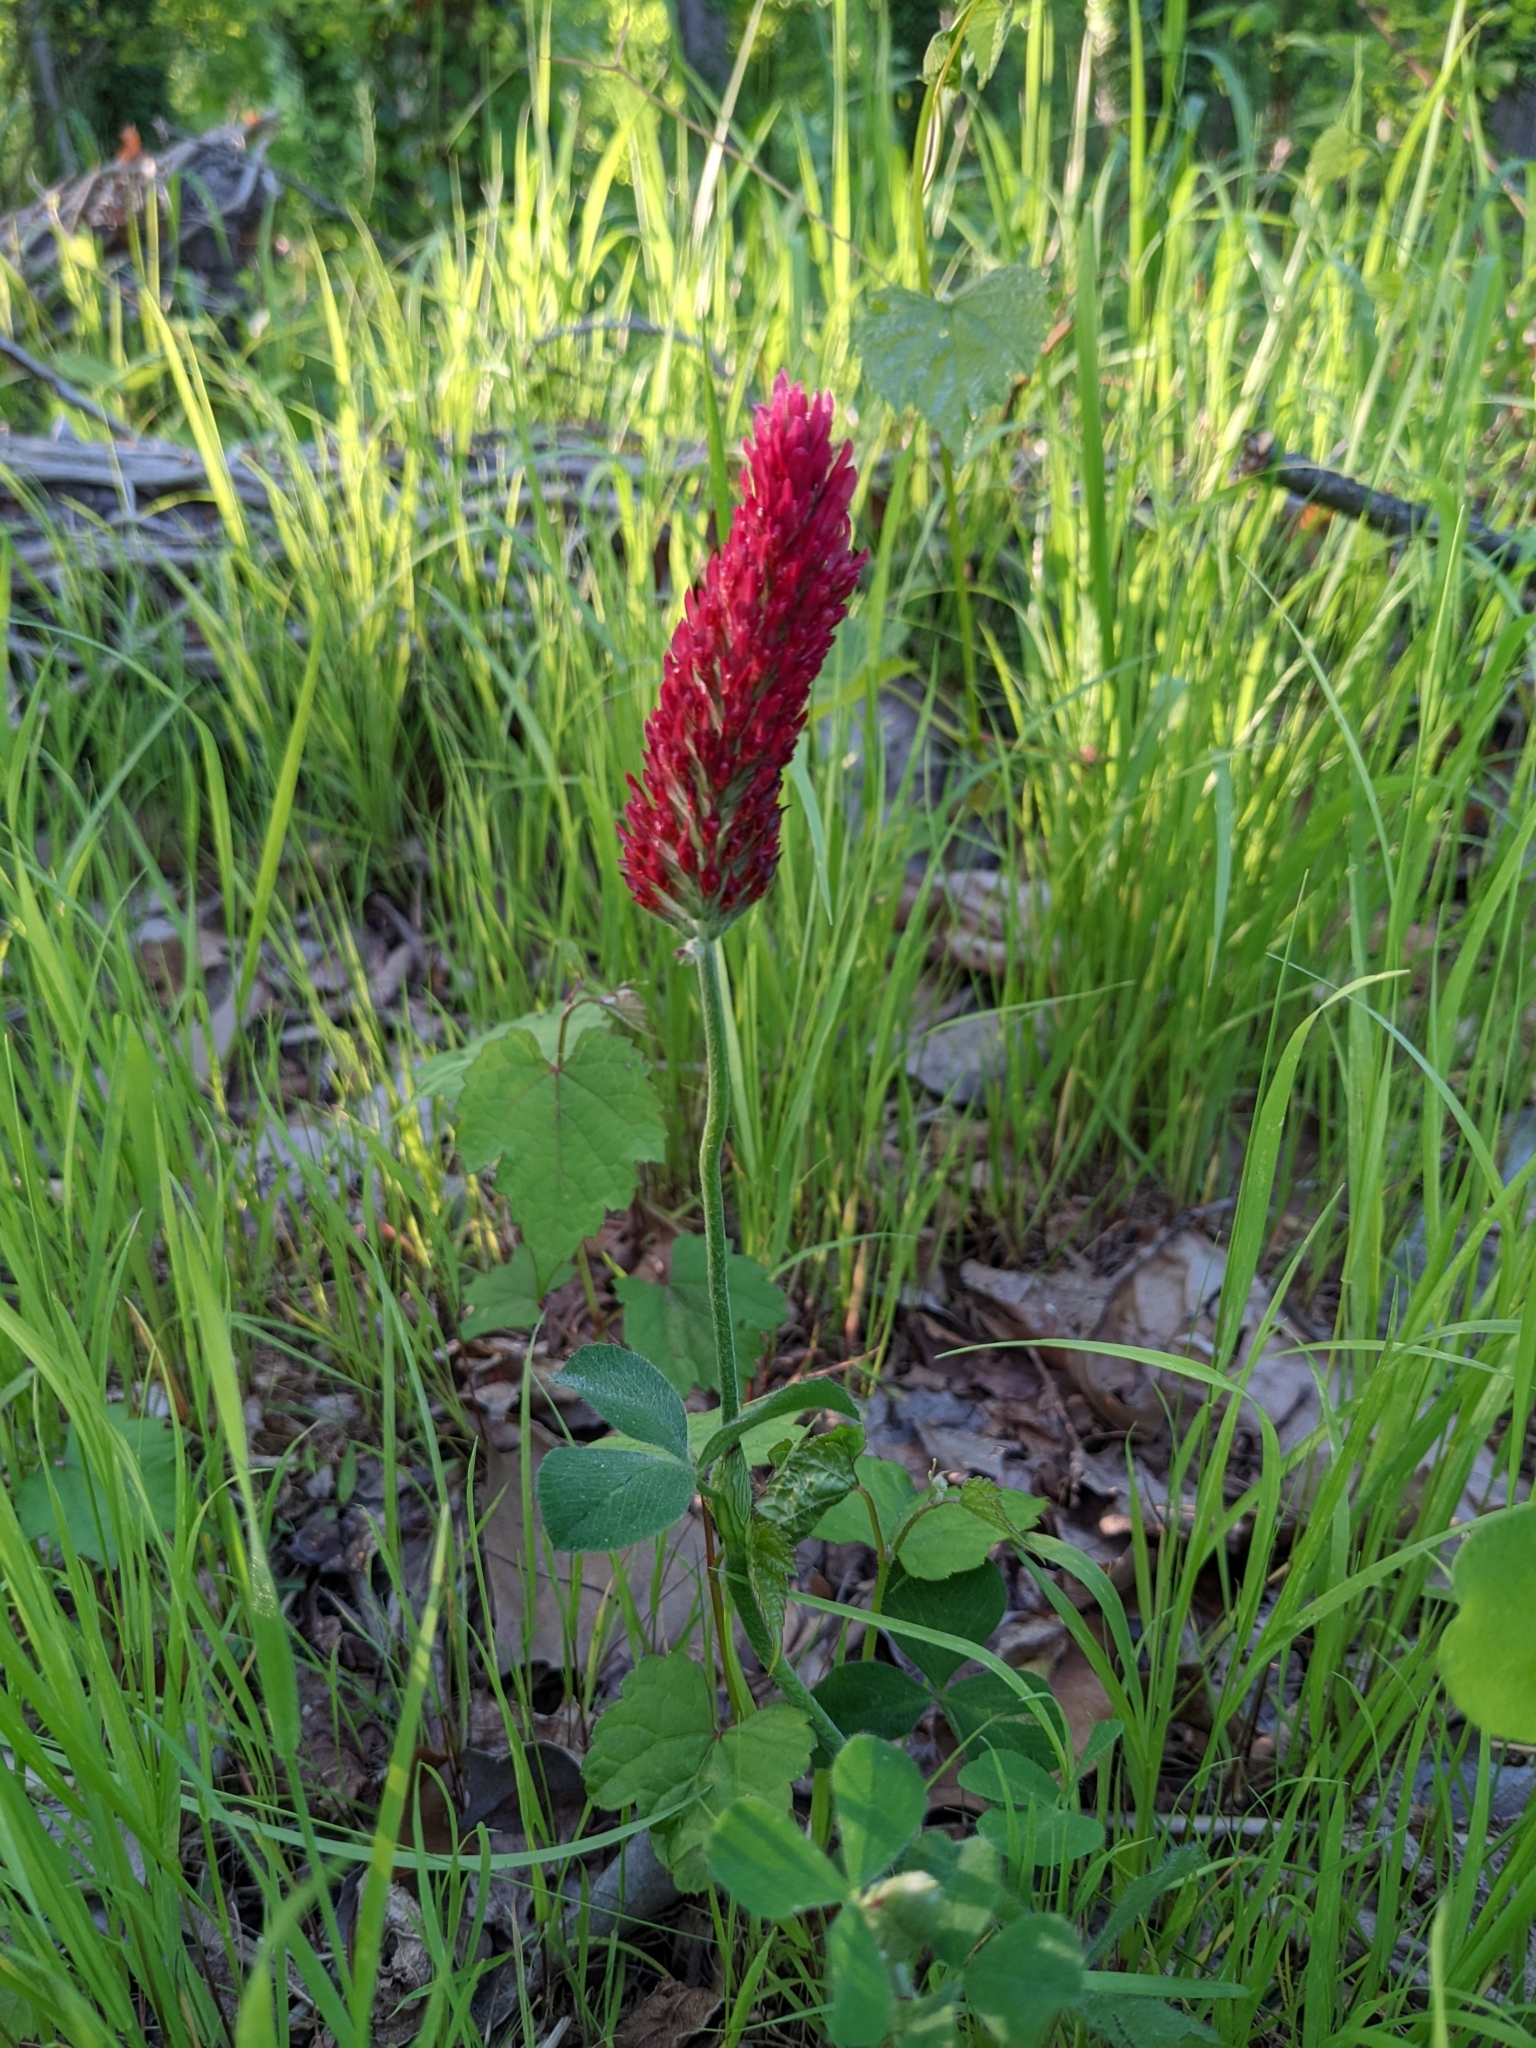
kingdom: Plantae
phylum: Tracheophyta
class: Magnoliopsida
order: Fabales
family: Fabaceae
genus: Trifolium
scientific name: Trifolium incarnatum
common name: Crimson clover
